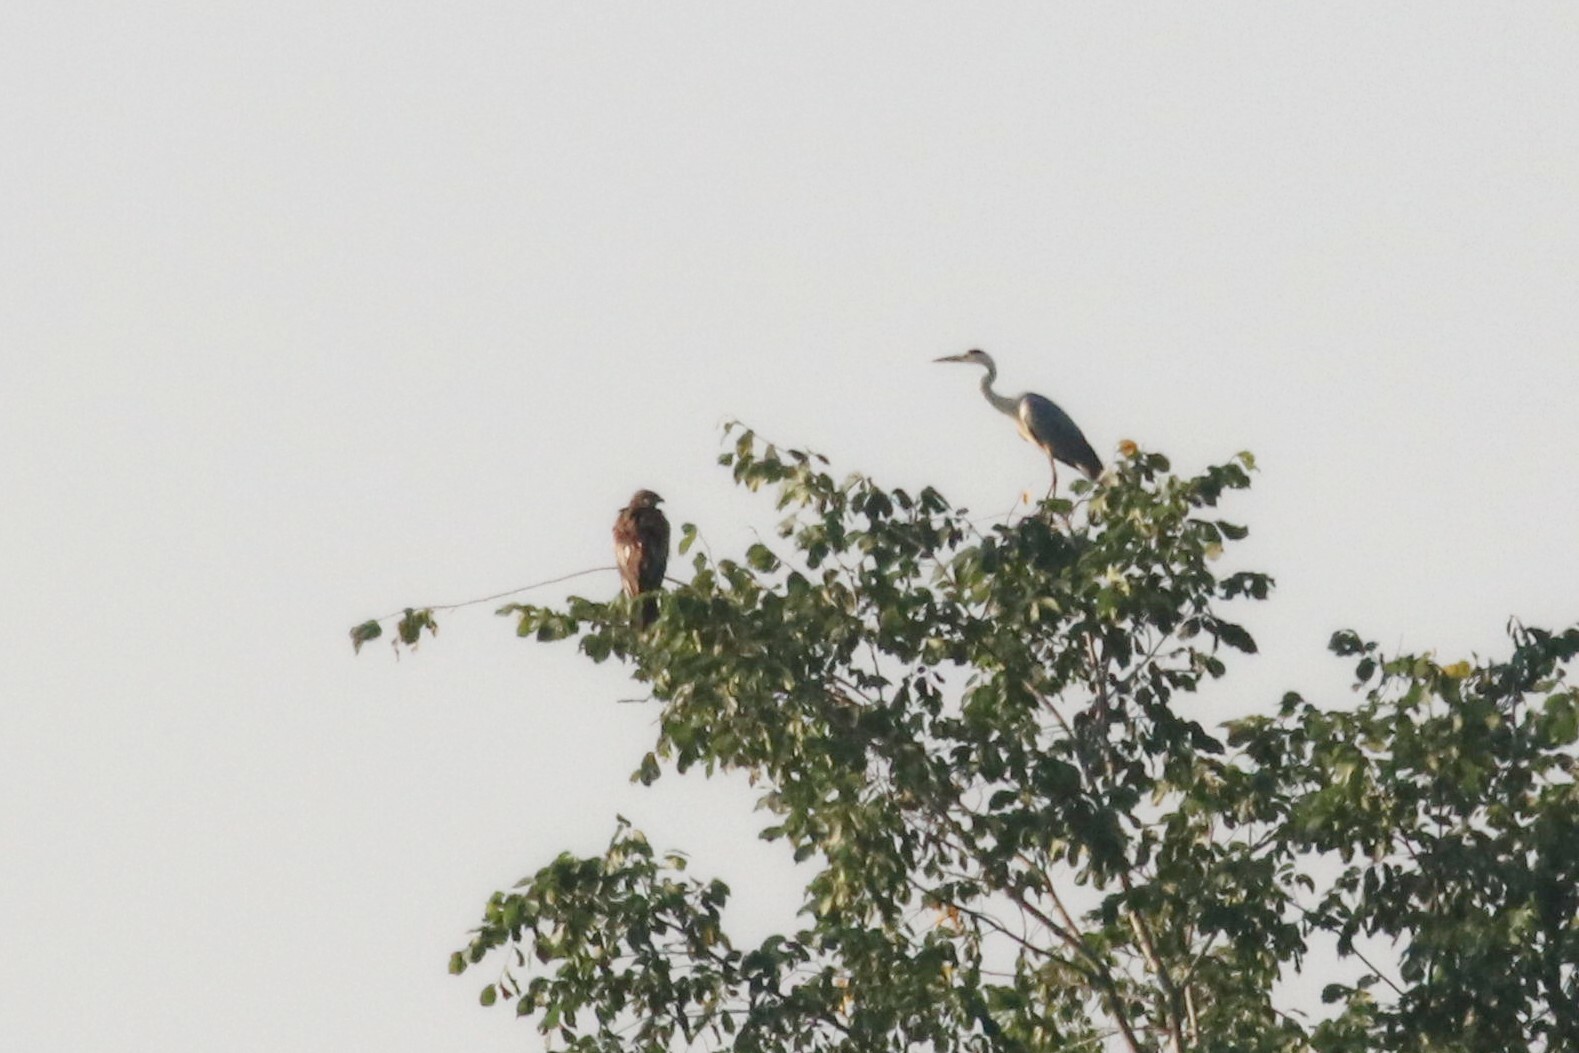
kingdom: Animalia
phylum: Chordata
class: Aves
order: Accipitriformes
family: Accipitridae
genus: Milvus
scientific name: Milvus migrans
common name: Black kite
